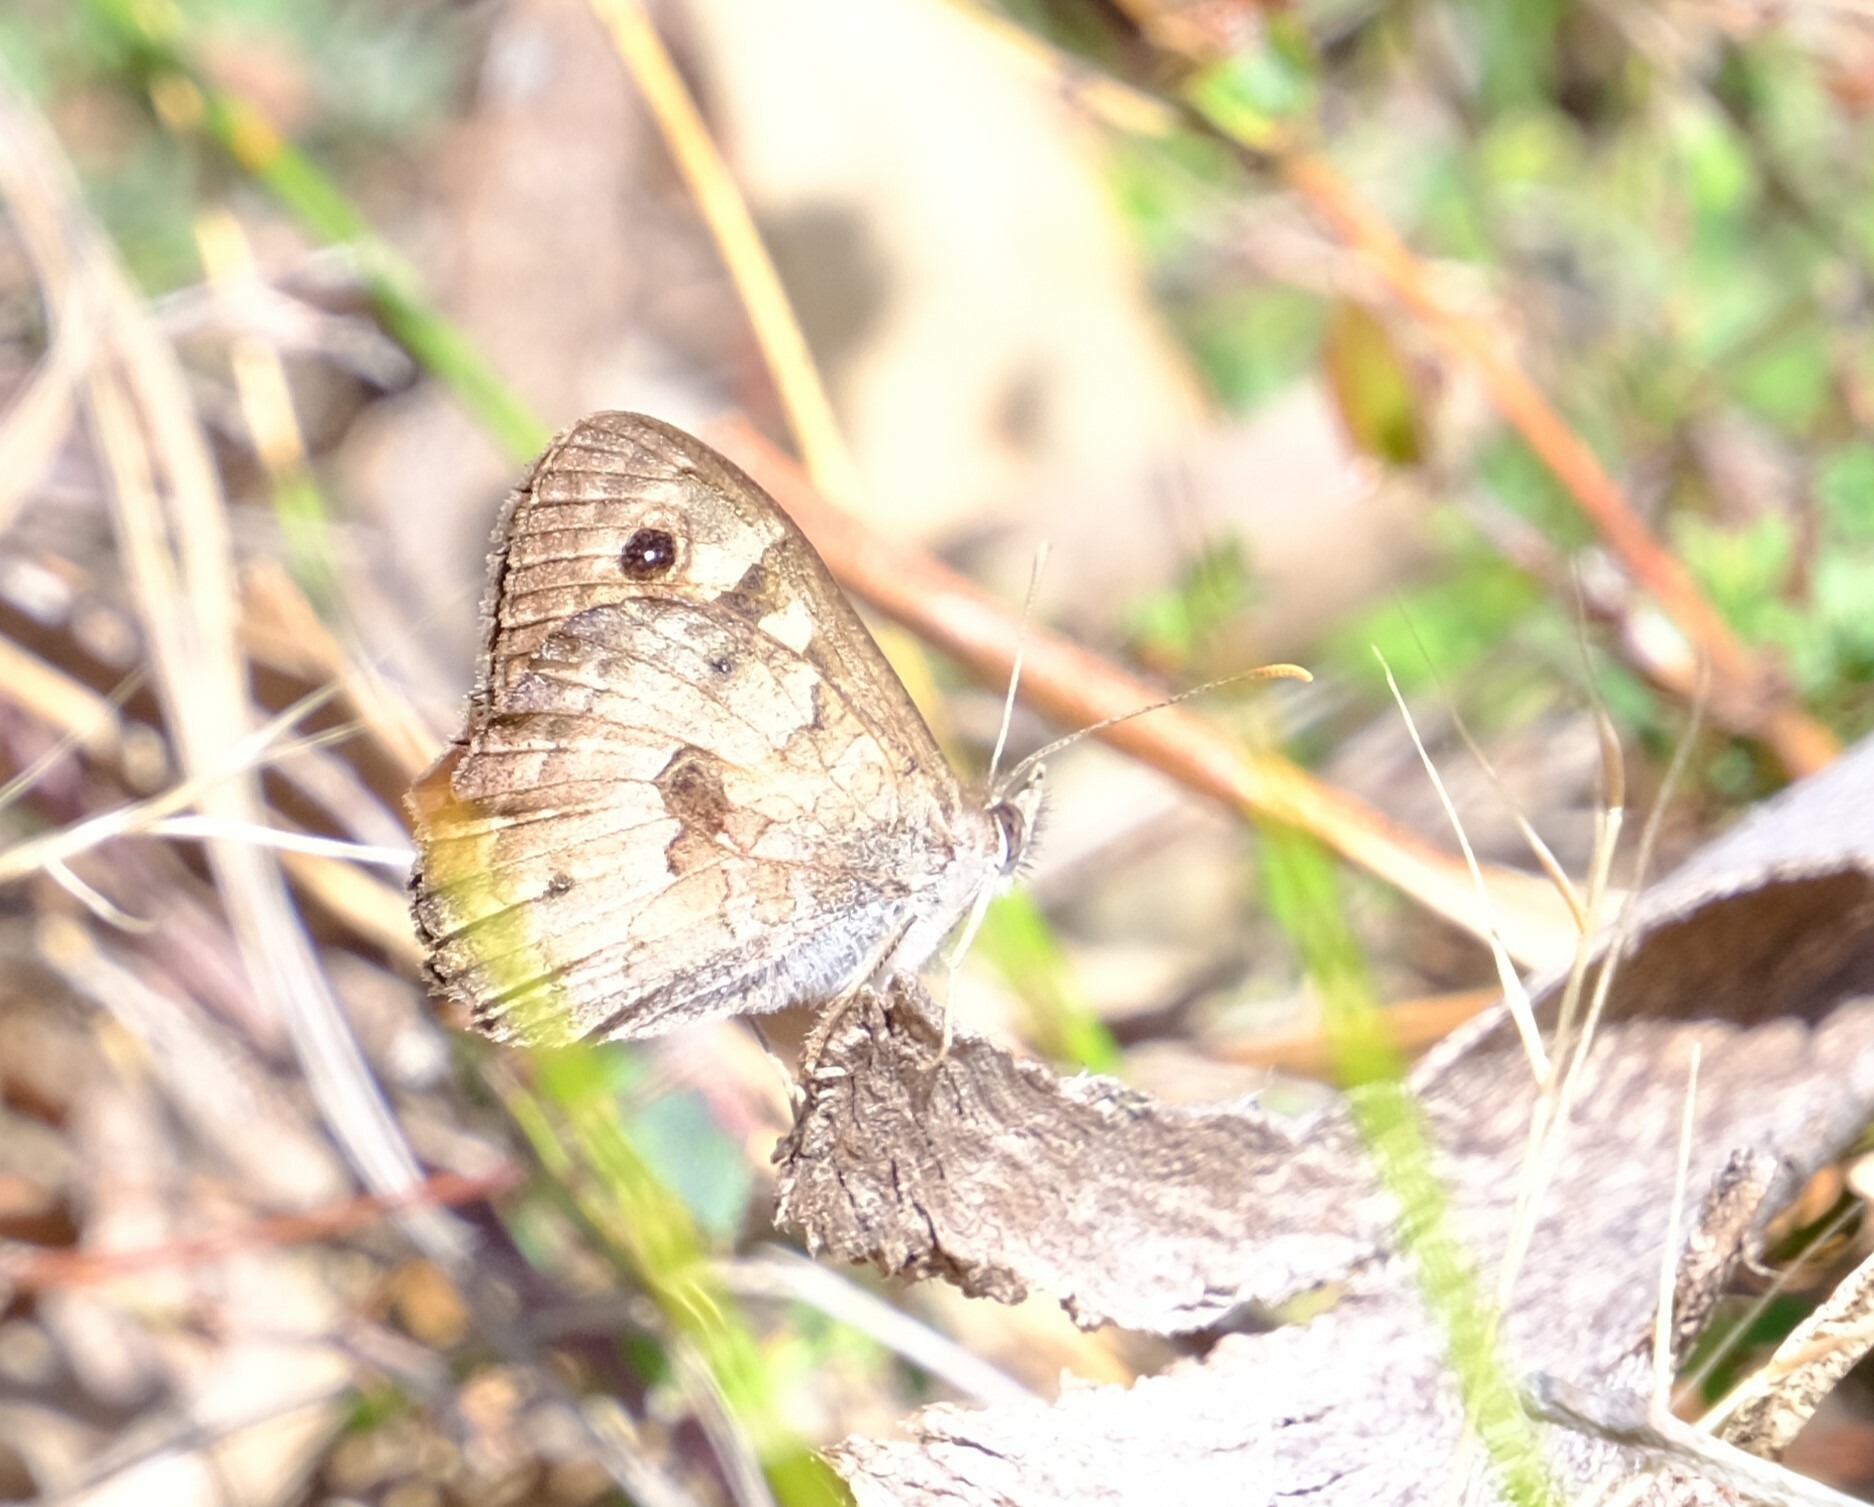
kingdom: Animalia
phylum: Arthropoda
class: Insecta
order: Lepidoptera
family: Nymphalidae
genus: Geitoneura
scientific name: Geitoneura klugii
